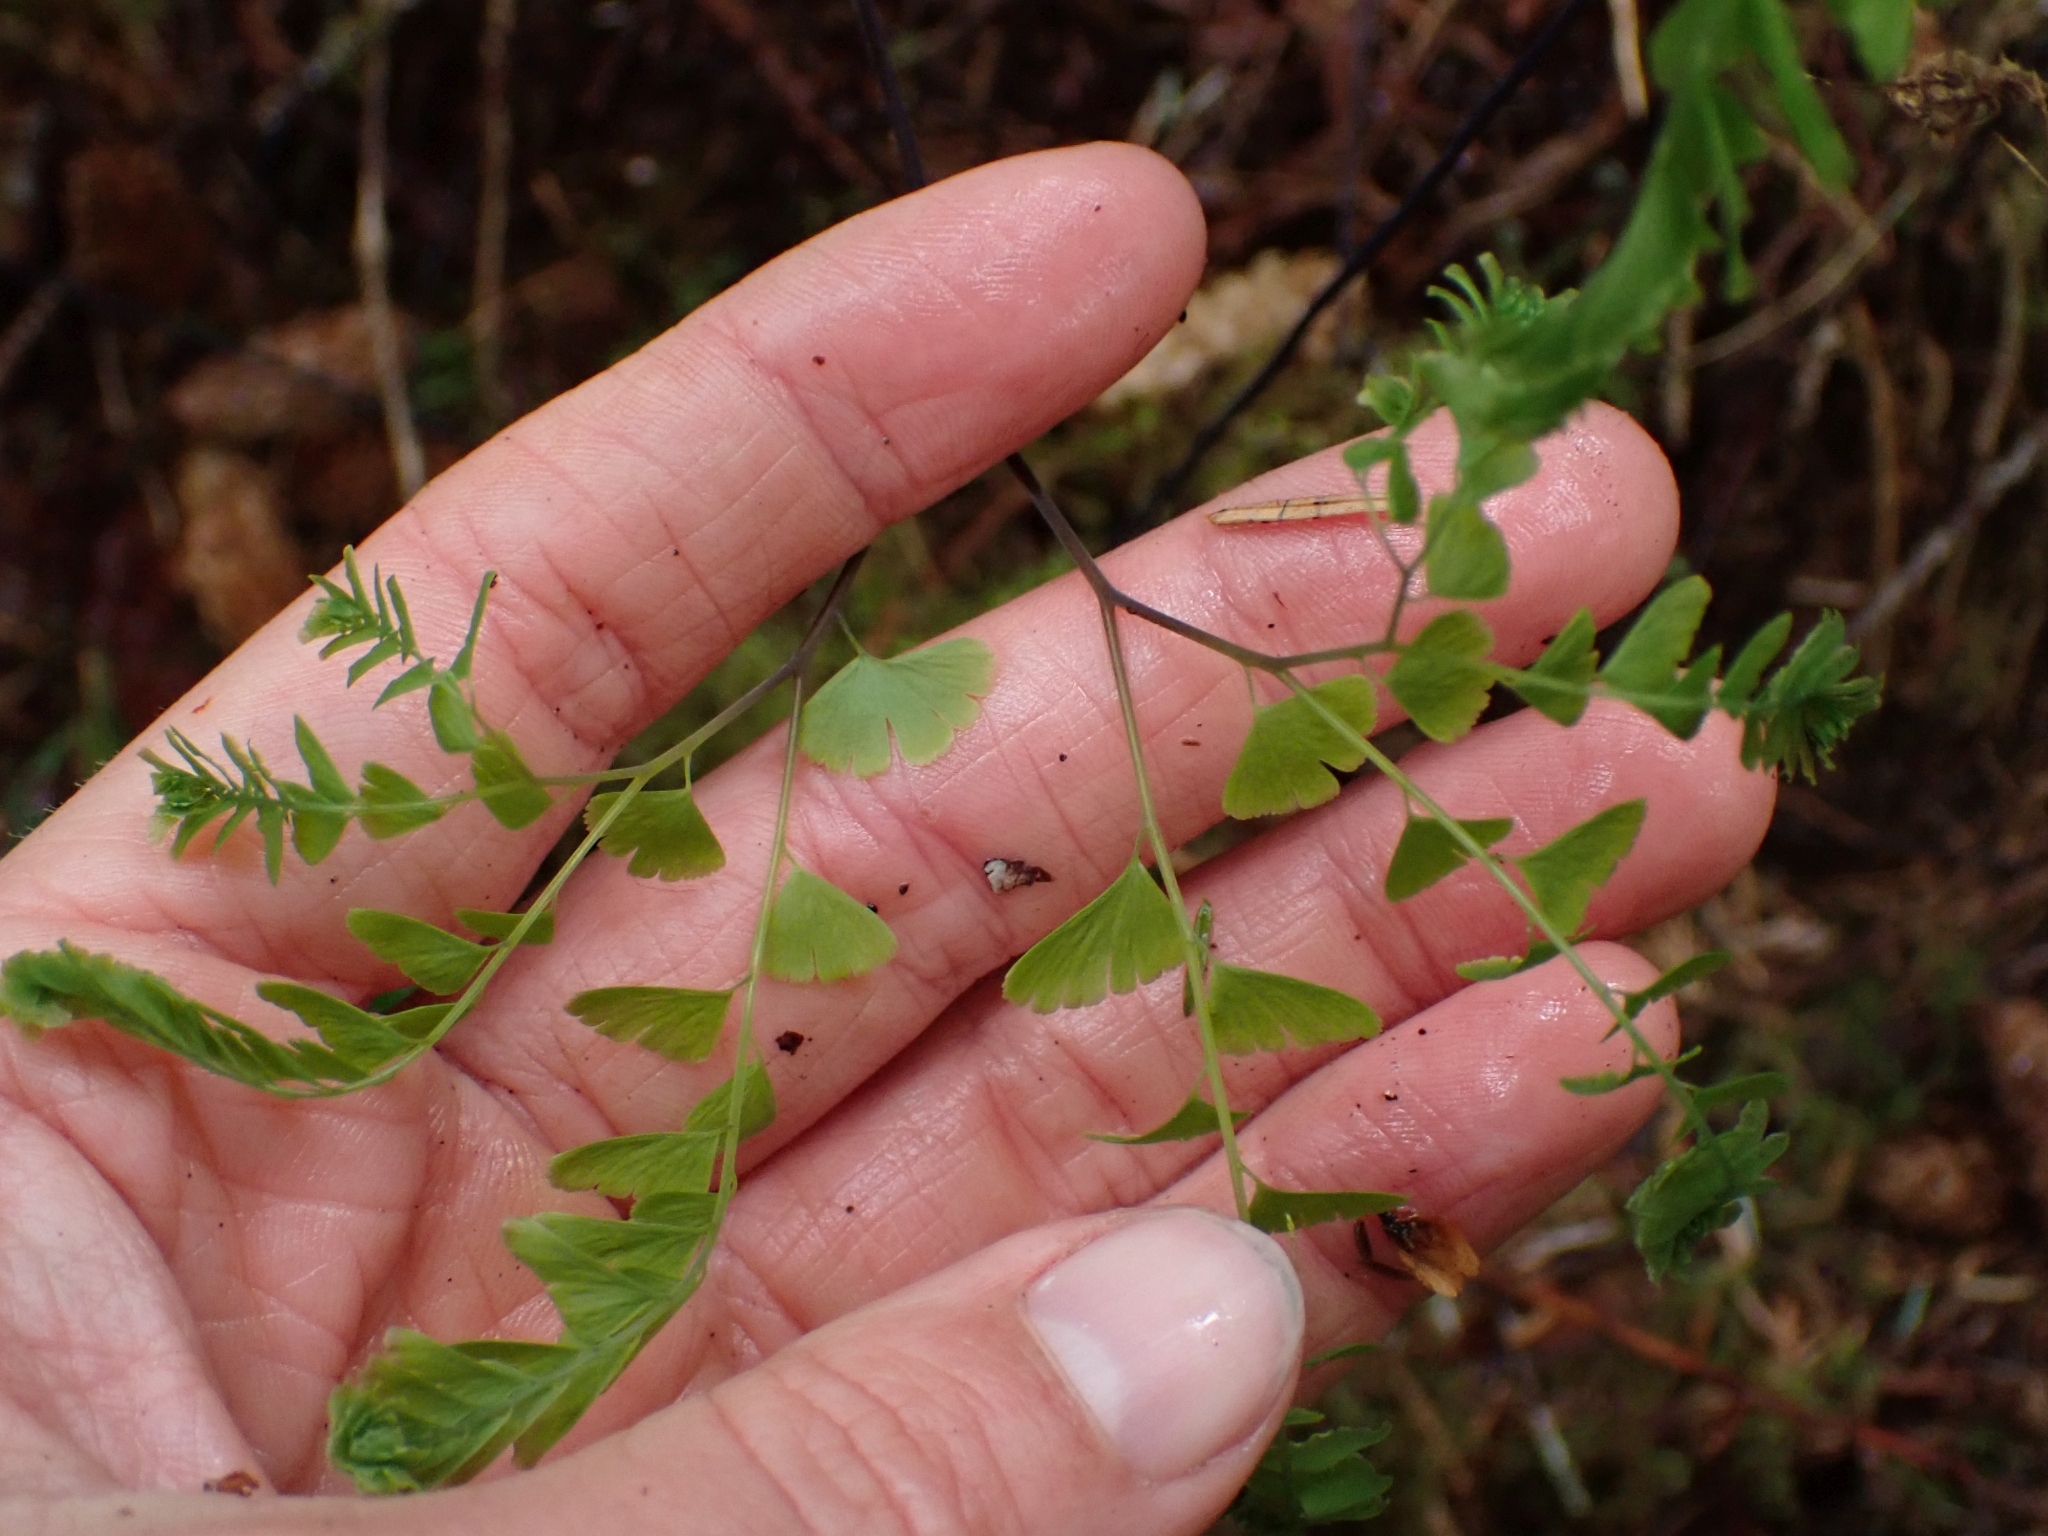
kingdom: Plantae
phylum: Tracheophyta
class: Polypodiopsida
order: Polypodiales
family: Pteridaceae
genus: Adiantum
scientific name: Adiantum aleuticum
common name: Aleutian maidenhair fern
